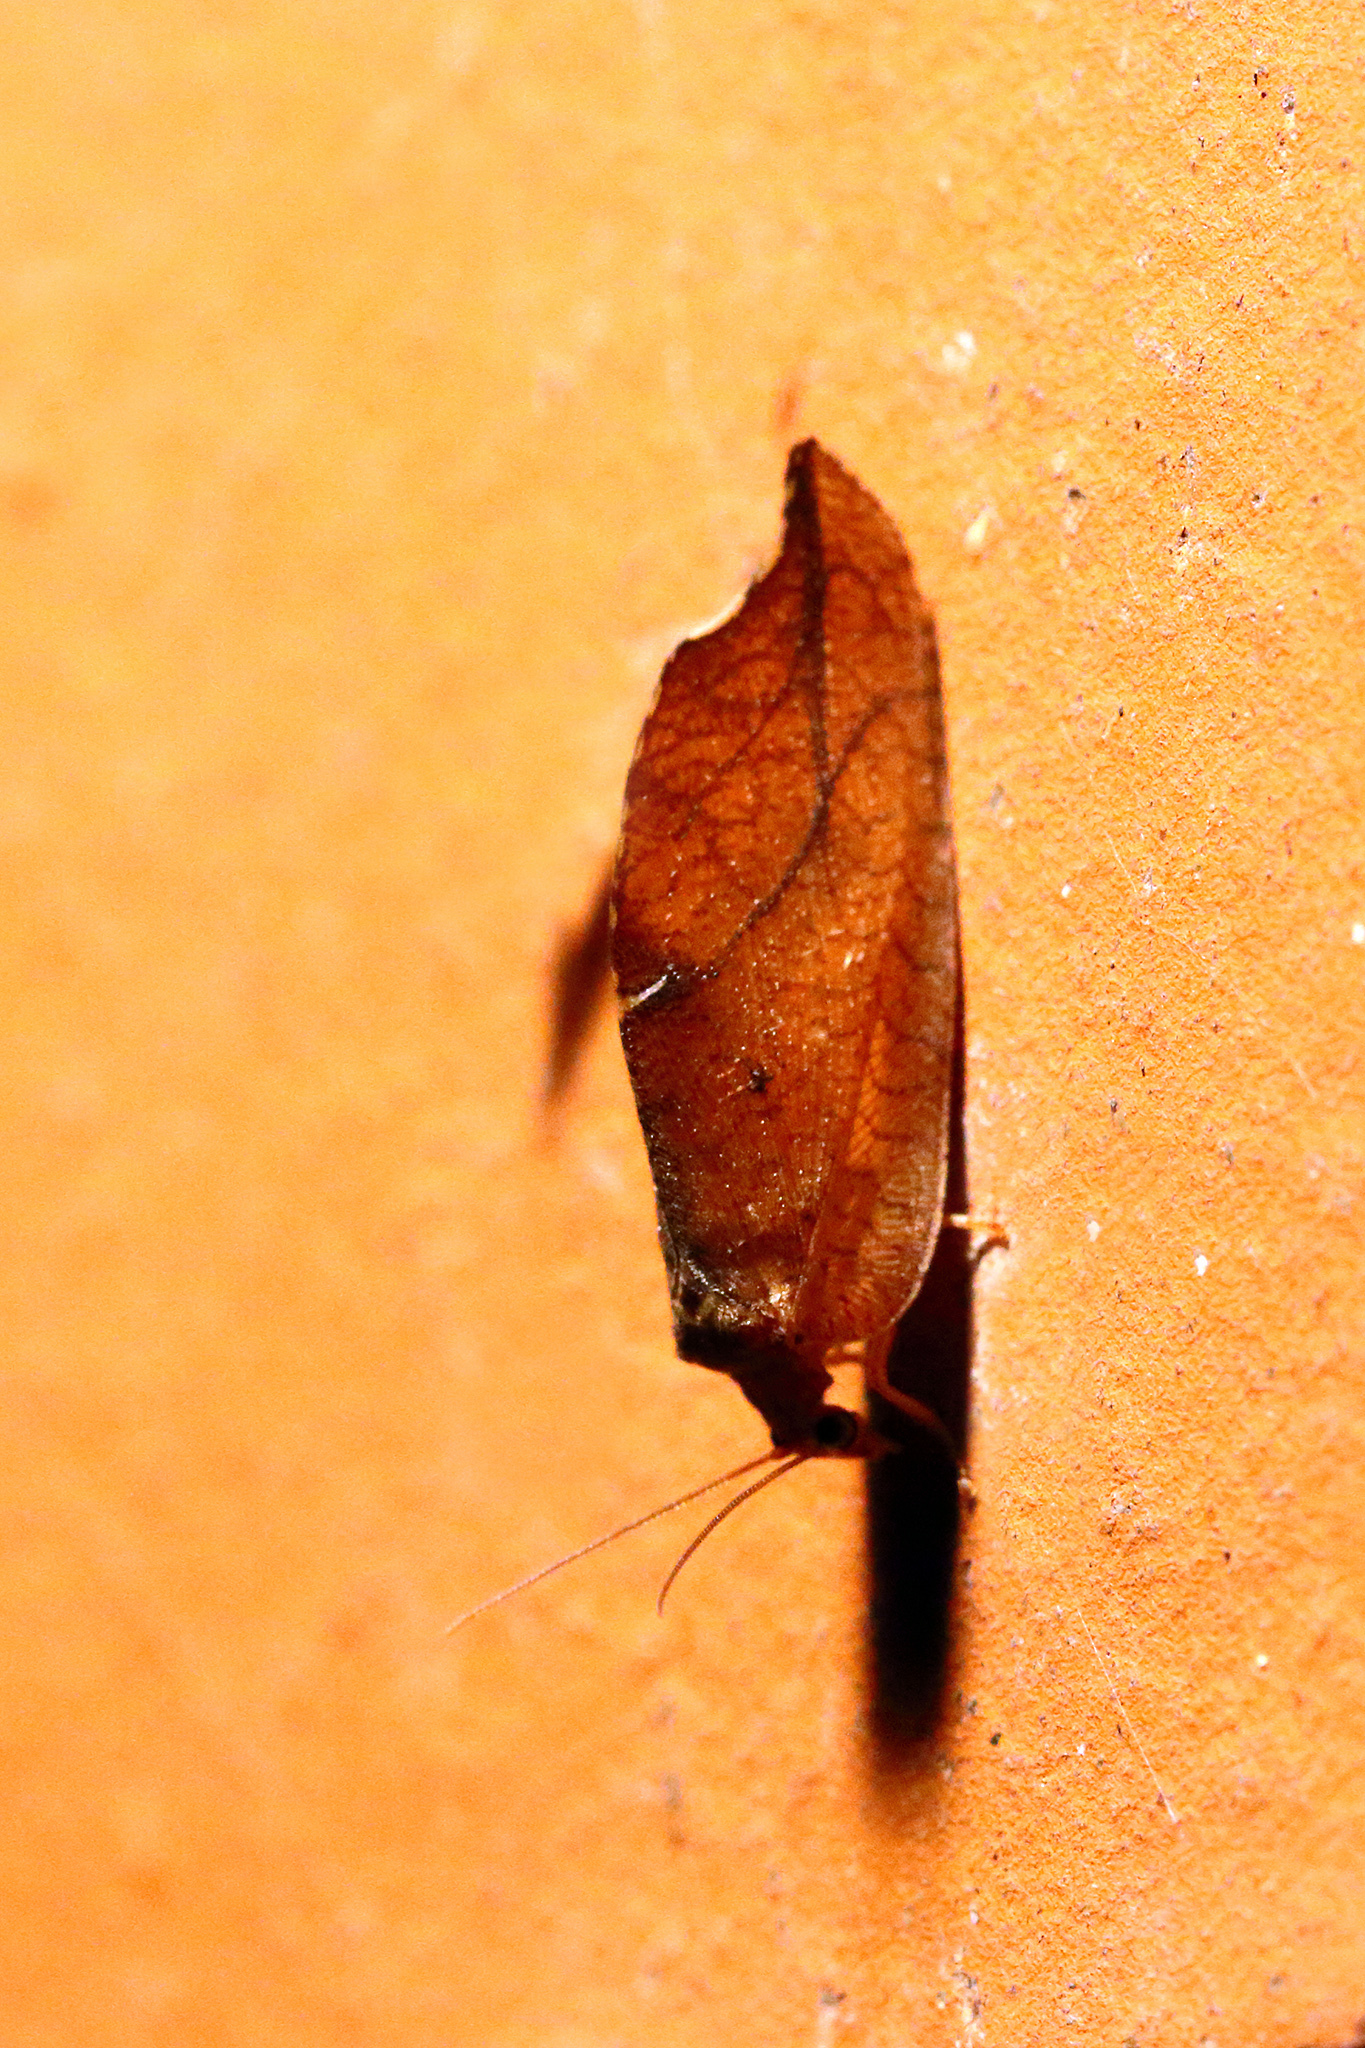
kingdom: Animalia
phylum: Arthropoda
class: Insecta
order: Neuroptera
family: Hemerobiidae
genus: Drepanepteryx
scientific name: Drepanepteryx phalaenoides
